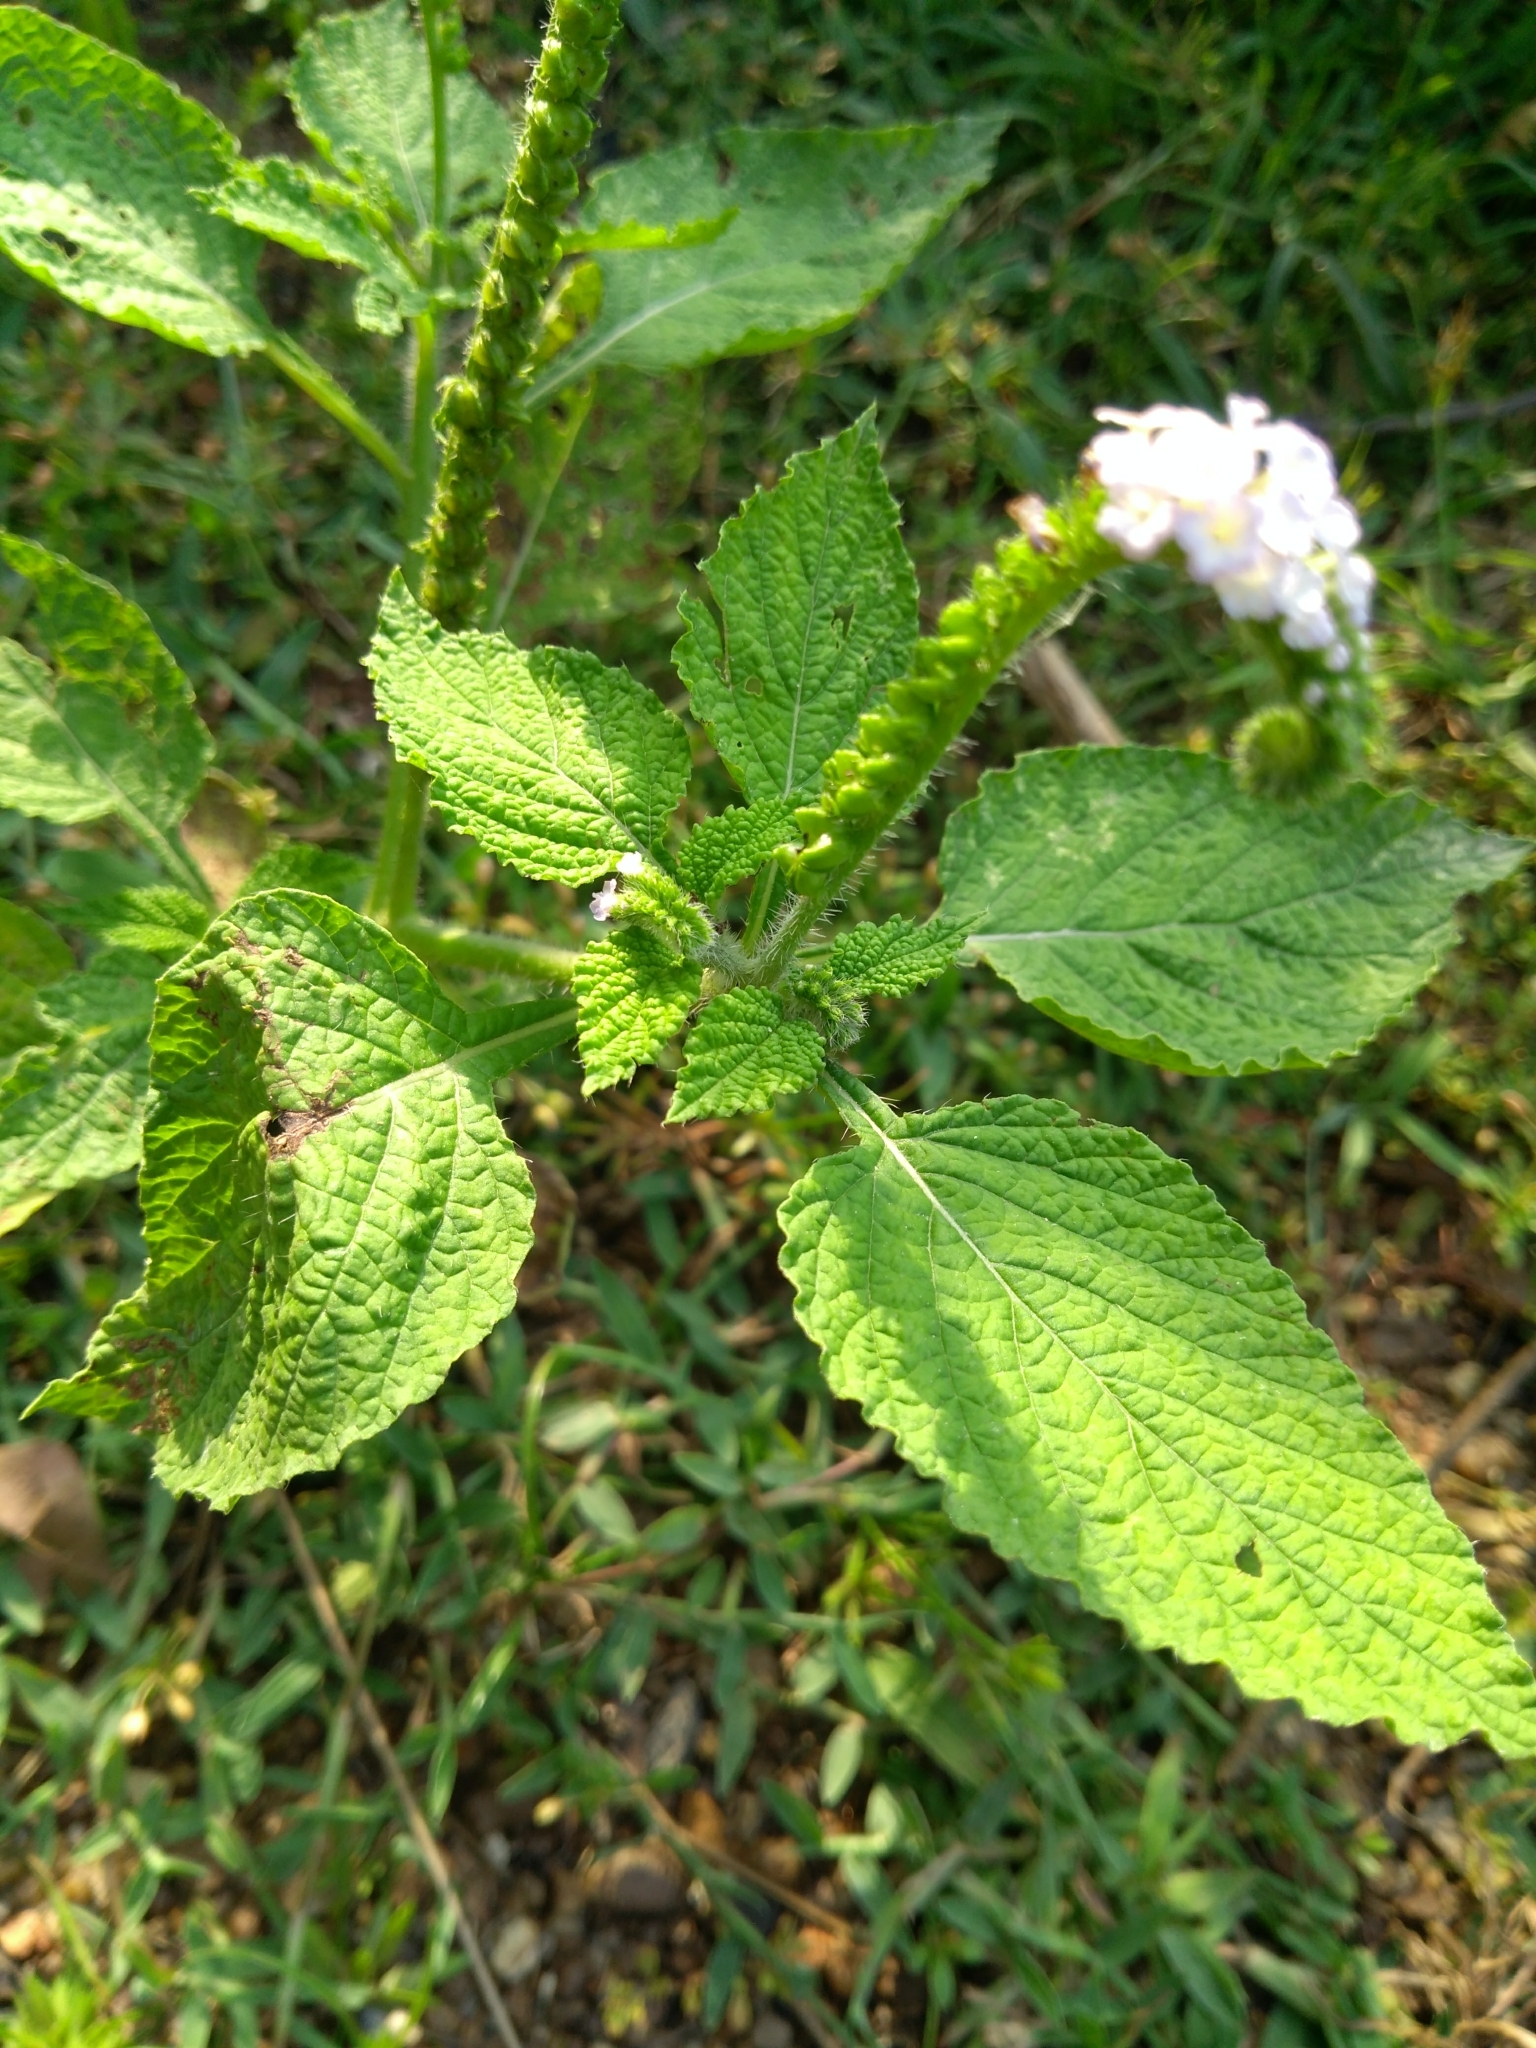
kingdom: Plantae
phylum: Tracheophyta
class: Magnoliopsida
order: Boraginales
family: Heliotropiaceae
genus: Heliotropium
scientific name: Heliotropium indicum
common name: Indian heliotrope
